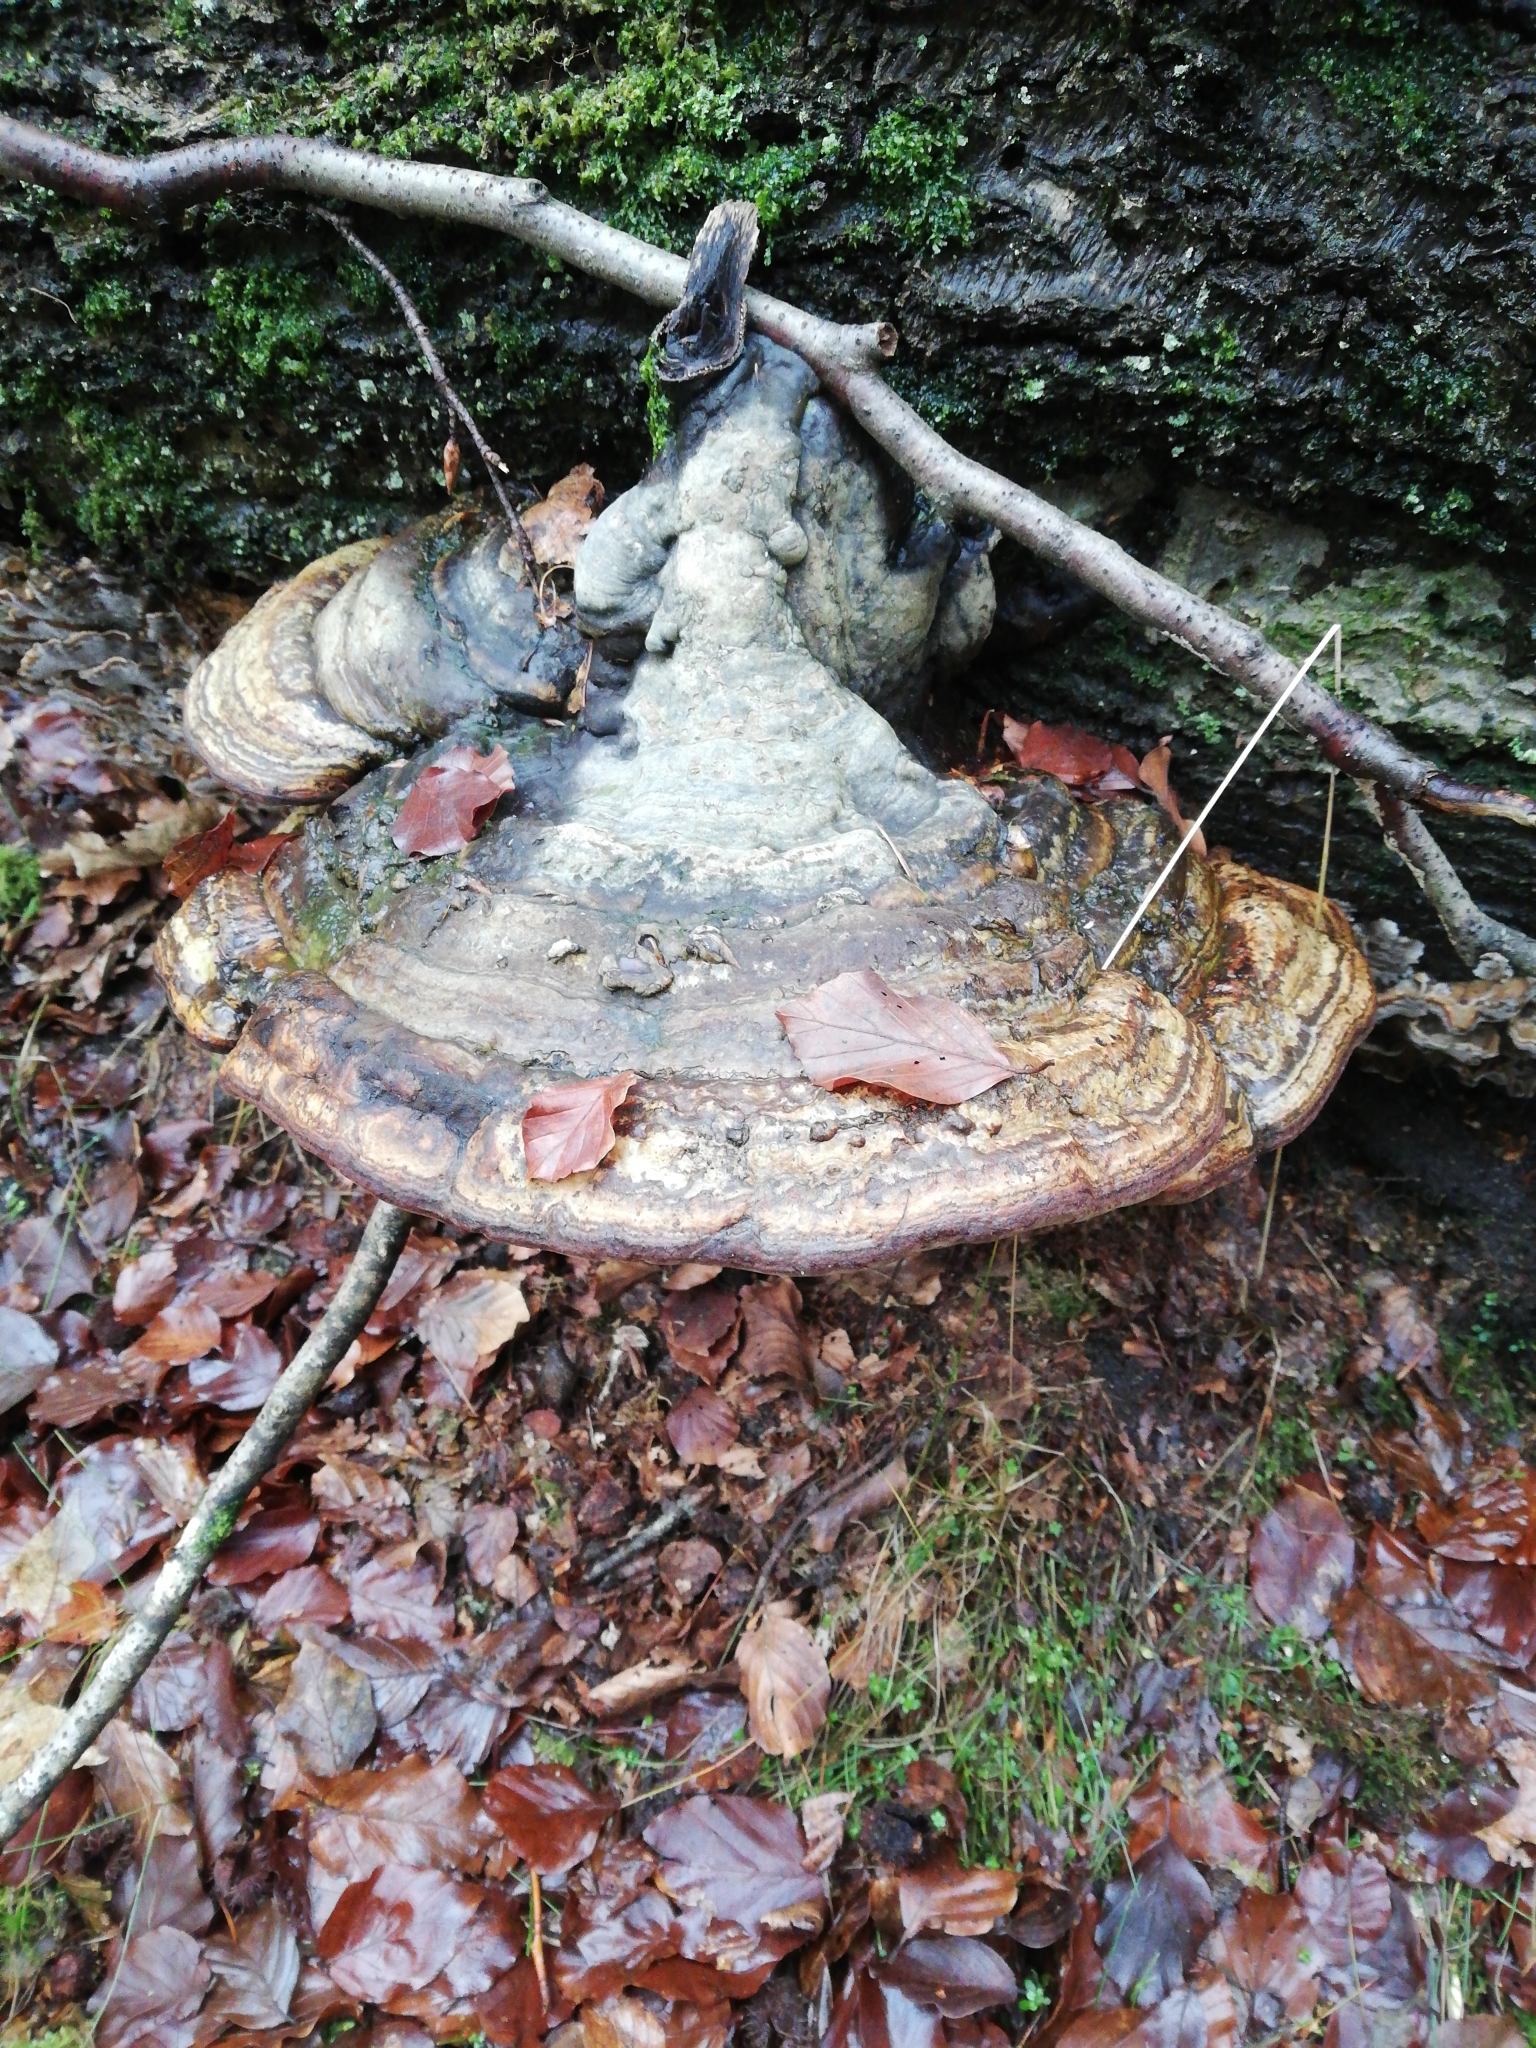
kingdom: Fungi
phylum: Basidiomycota
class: Agaricomycetes
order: Polyporales
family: Polyporaceae
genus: Fomes
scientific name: Fomes fomentarius
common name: Hoof fungus
